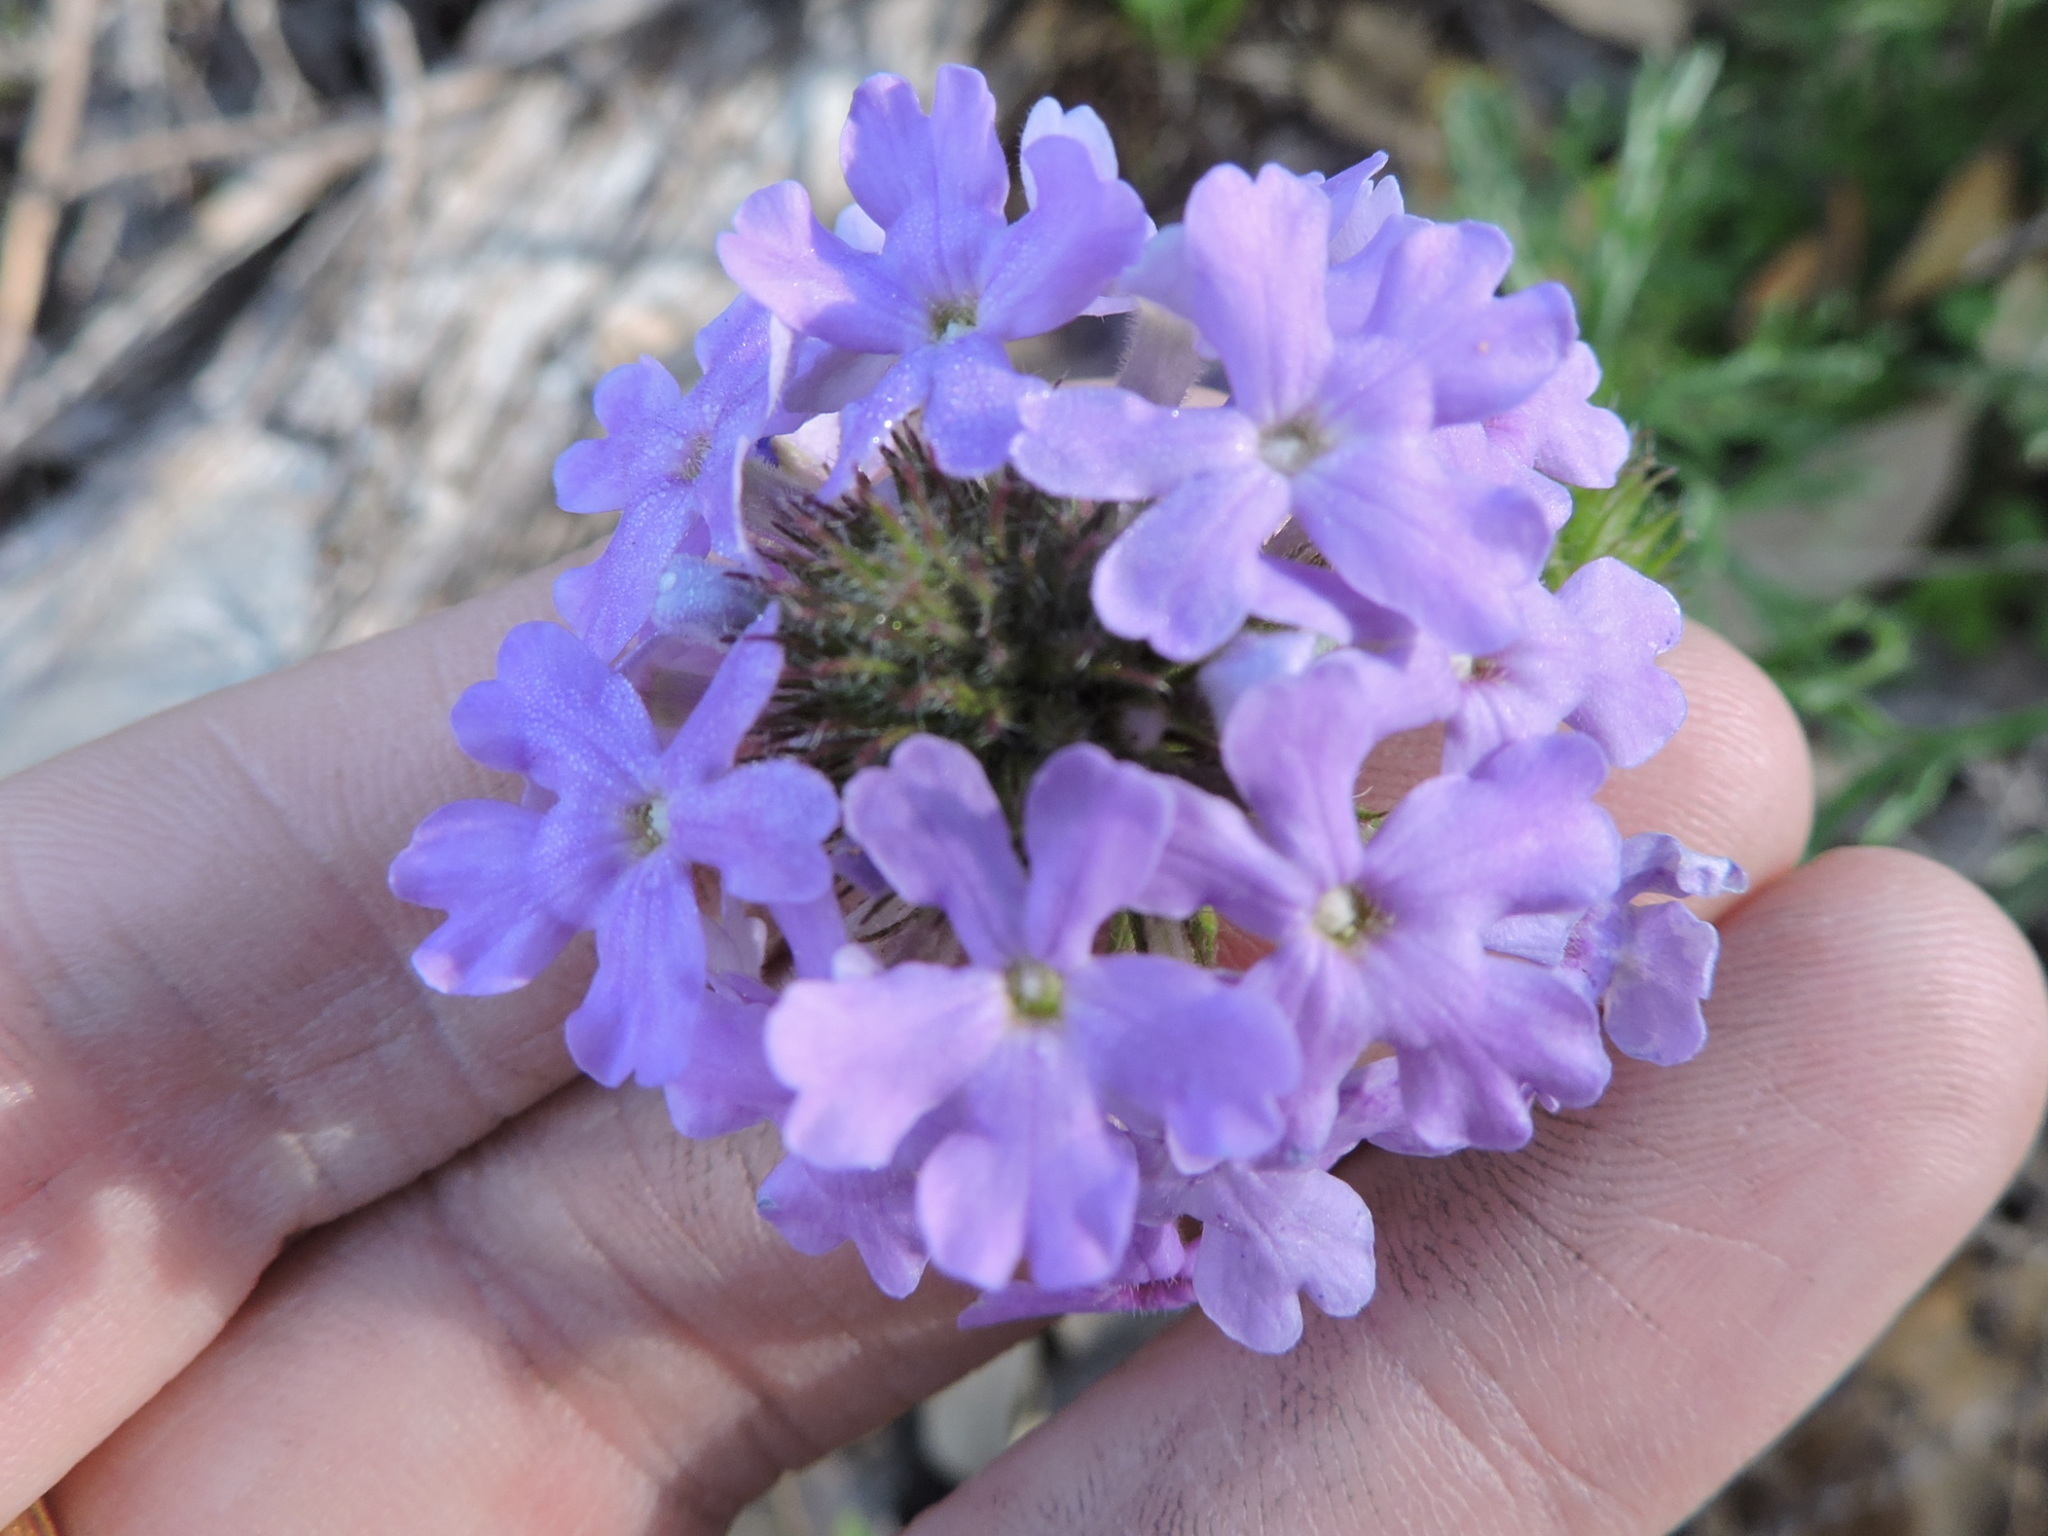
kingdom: Plantae
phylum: Tracheophyta
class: Magnoliopsida
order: Lamiales
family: Verbenaceae
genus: Verbena
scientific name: Verbena bipinnatifida
